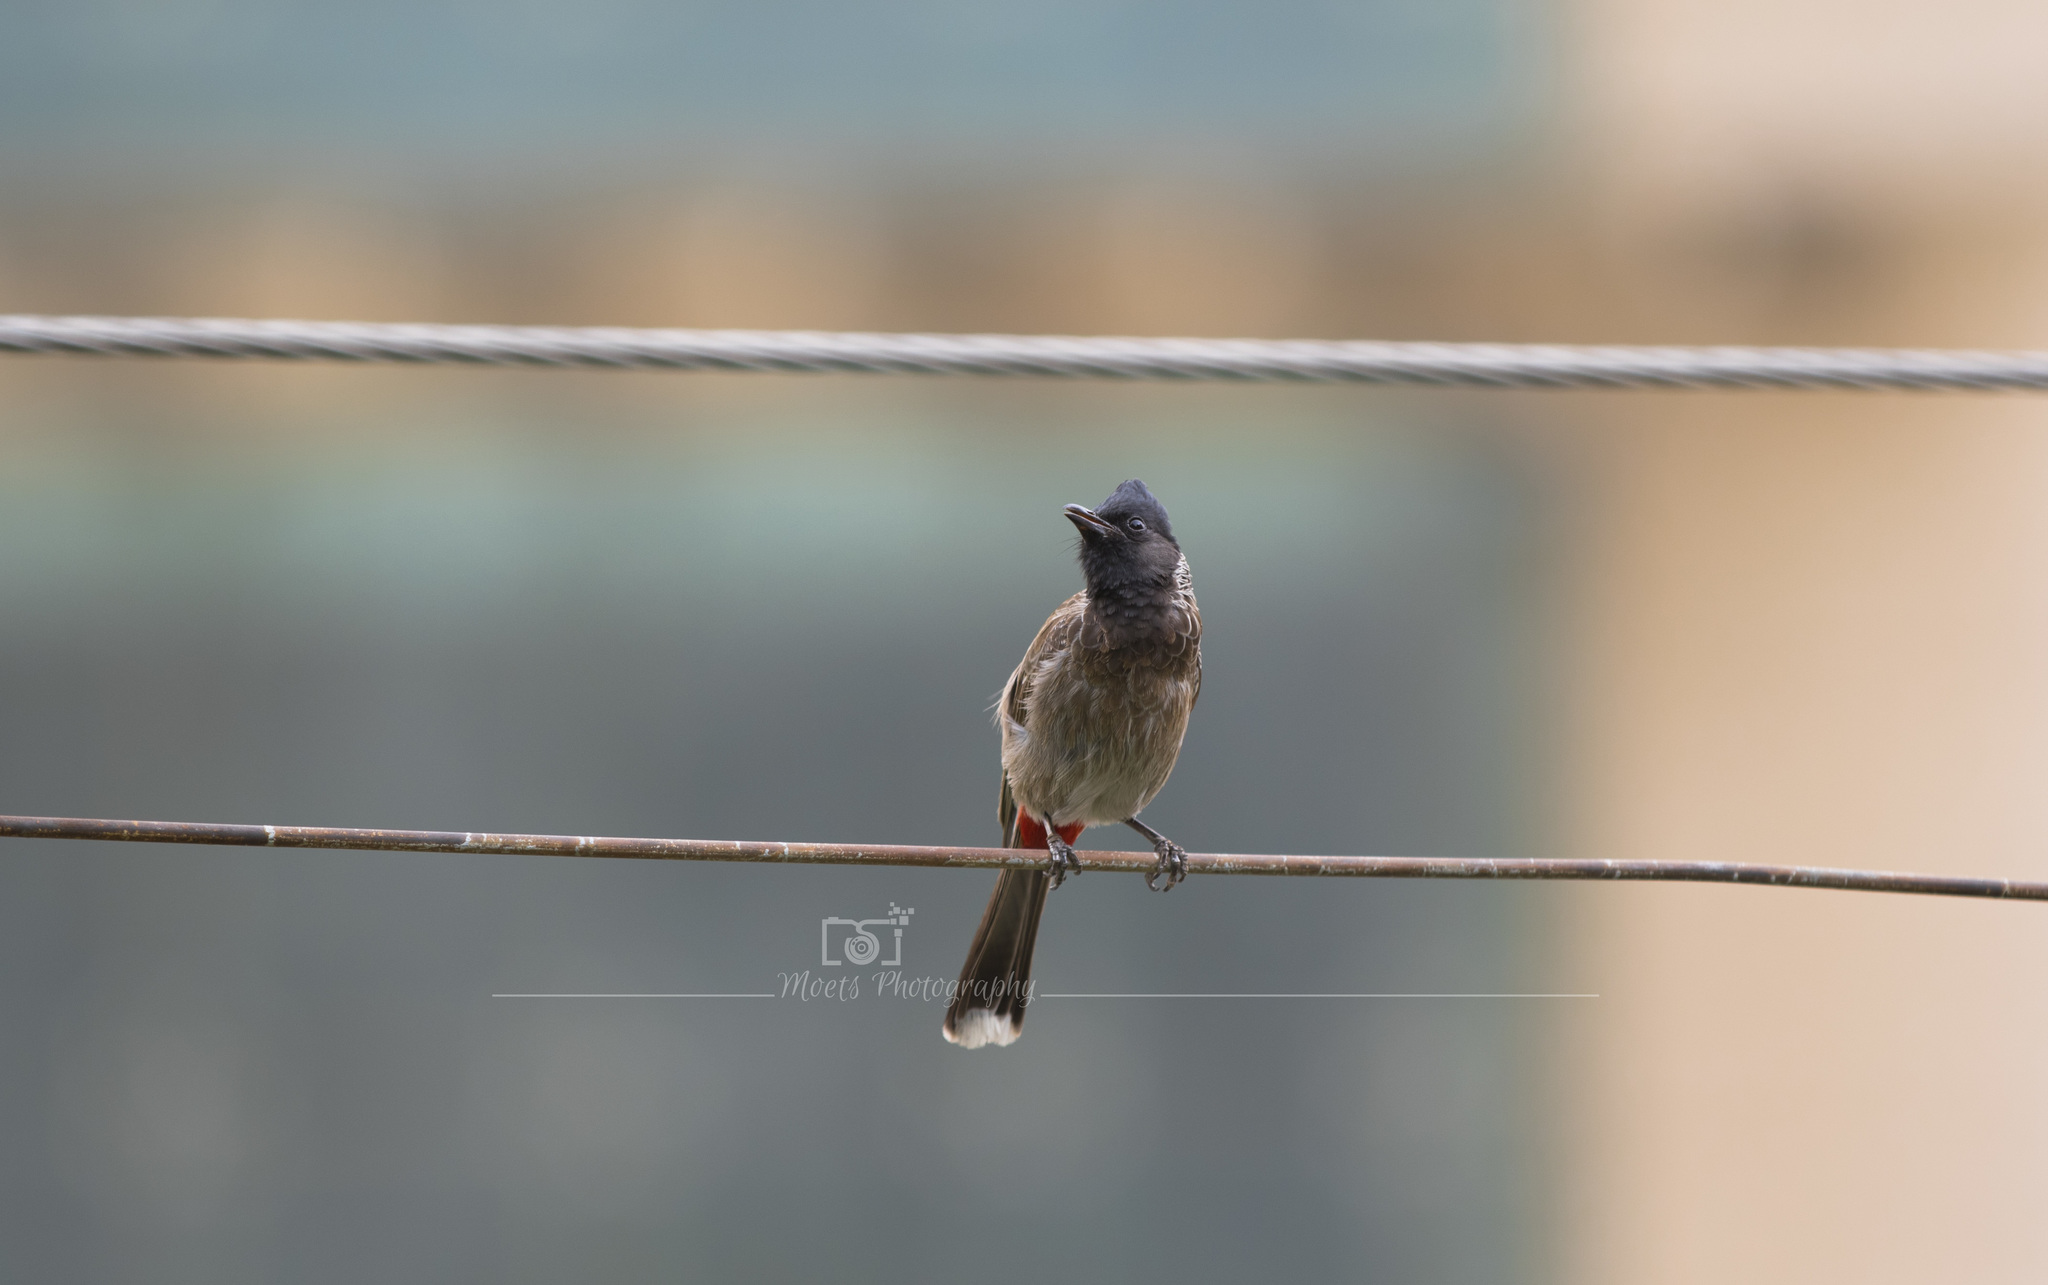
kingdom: Animalia
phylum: Chordata
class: Aves
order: Passeriformes
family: Pycnonotidae
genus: Pycnonotus
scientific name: Pycnonotus cafer
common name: Red-vented bulbul
